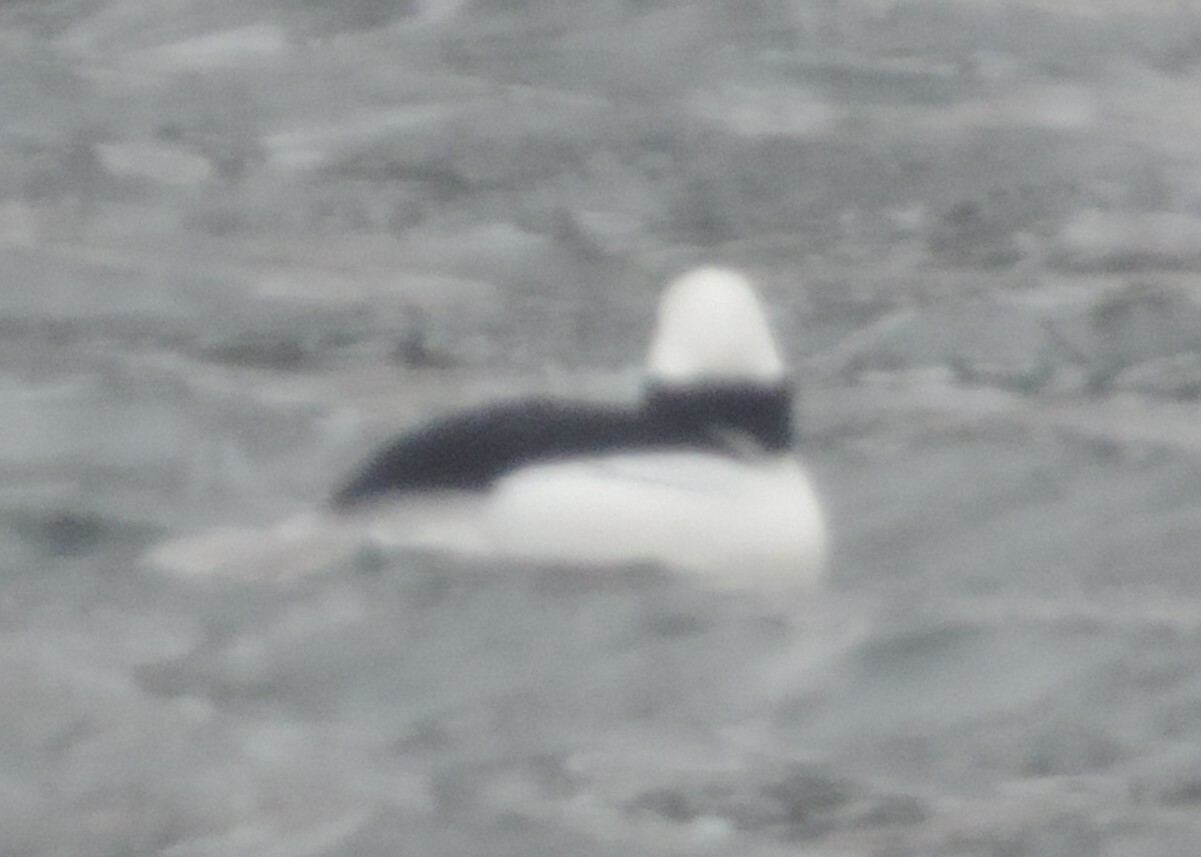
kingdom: Animalia
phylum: Chordata
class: Aves
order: Anseriformes
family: Anatidae
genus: Bucephala
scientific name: Bucephala albeola
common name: Bufflehead
